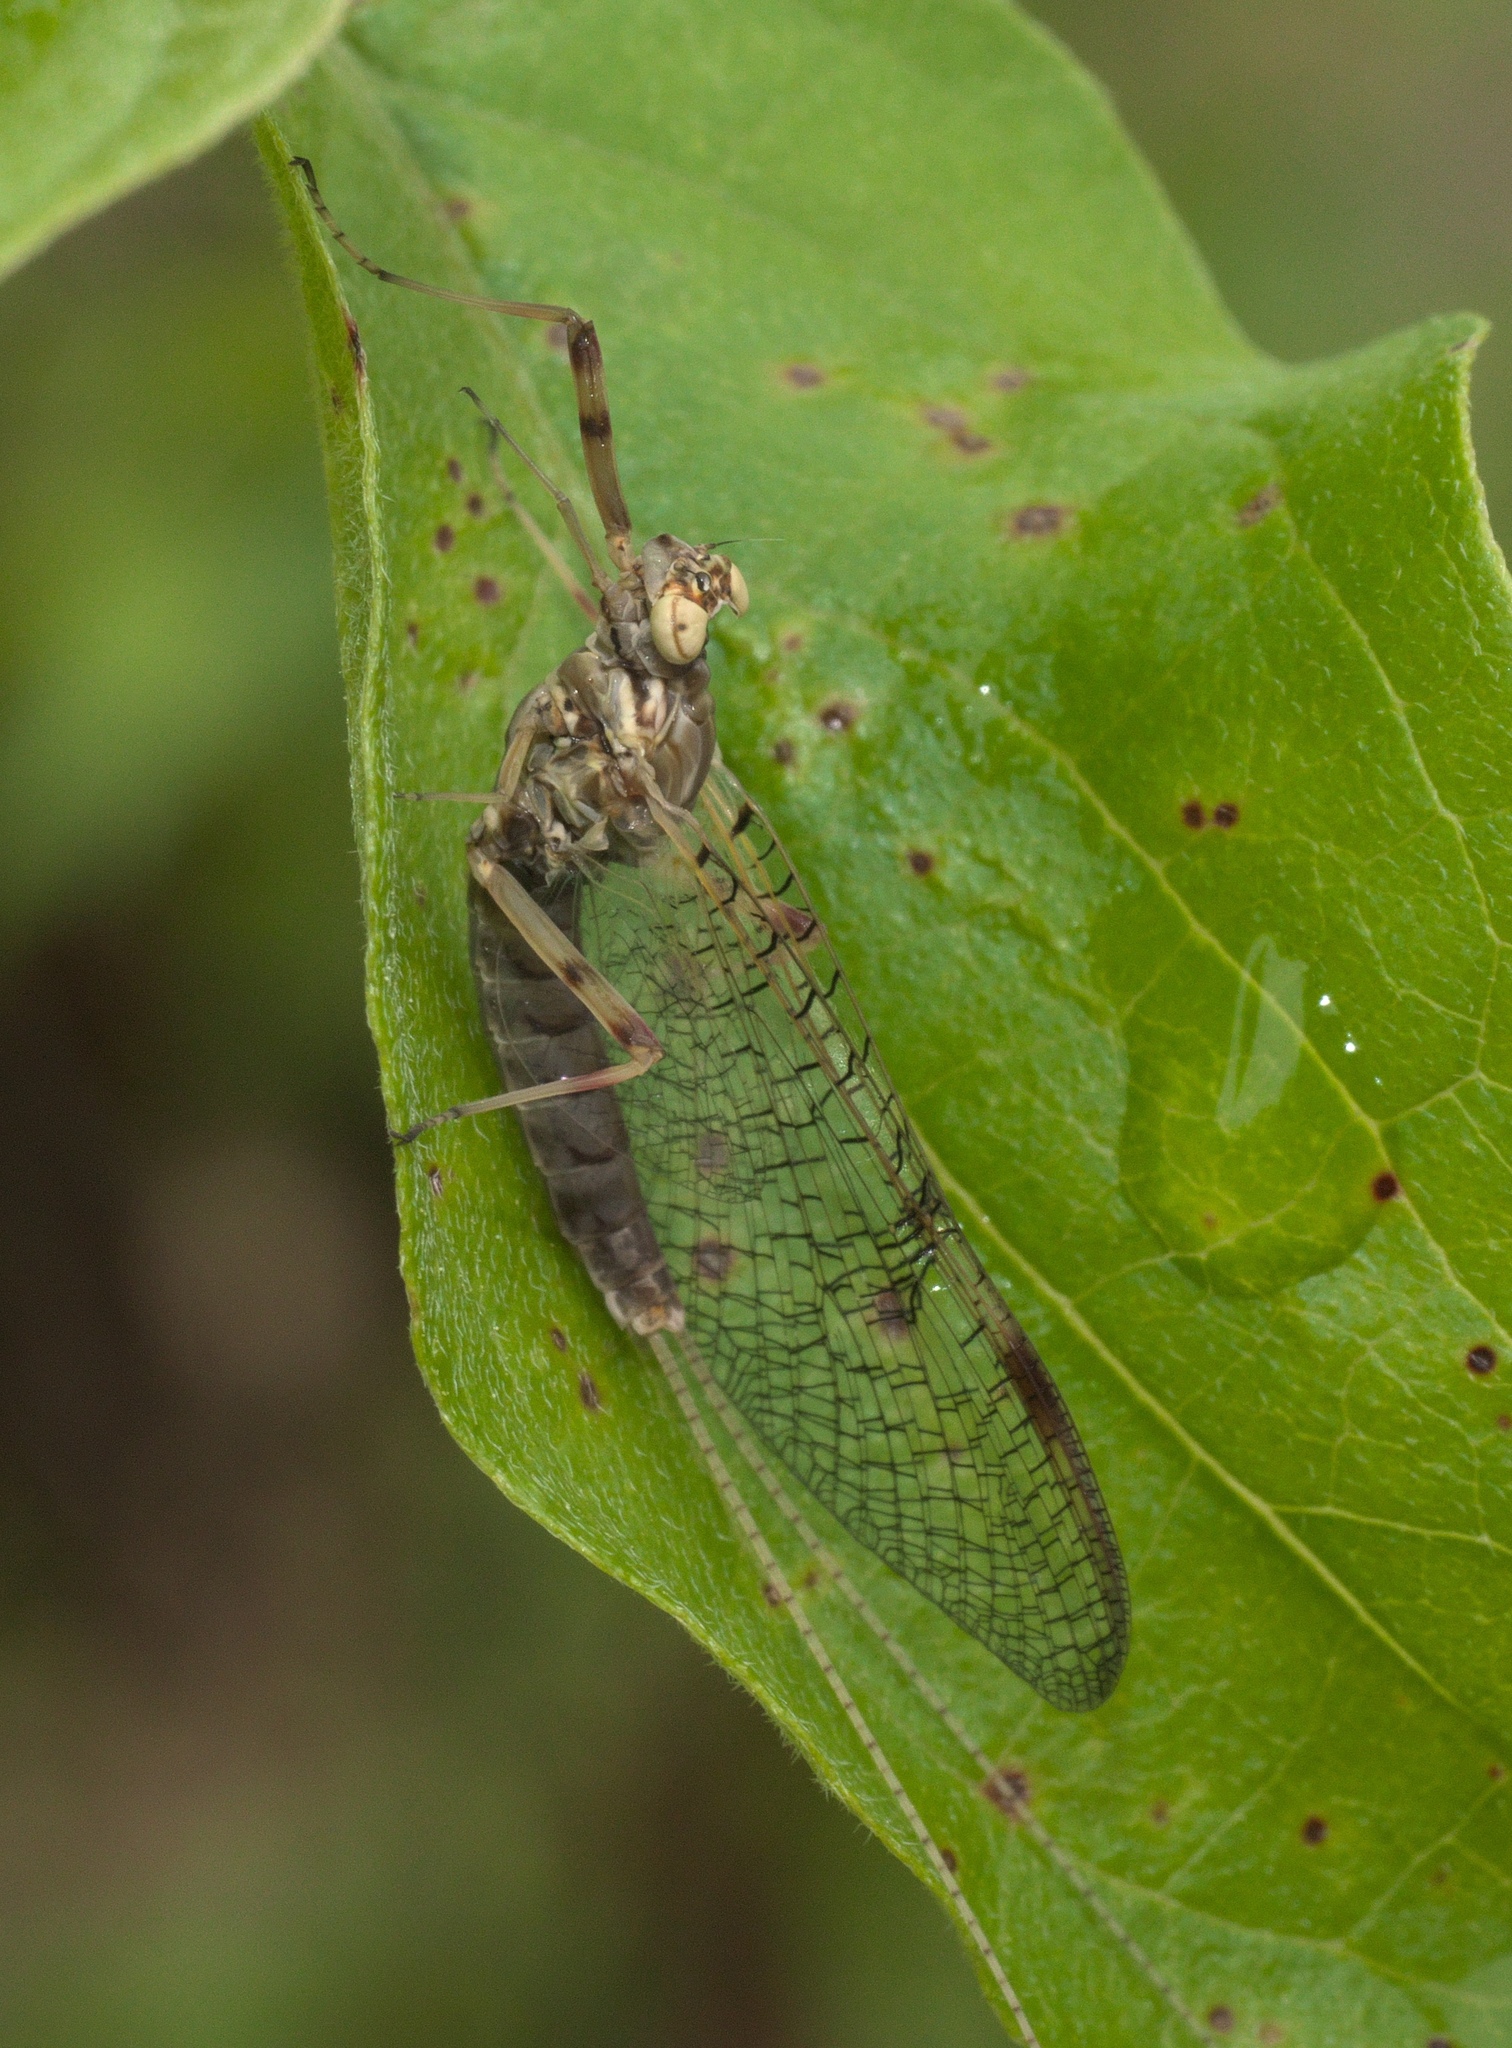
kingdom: Animalia
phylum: Arthropoda
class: Insecta
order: Ephemeroptera
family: Heptageniidae
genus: Stenonema
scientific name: Stenonema femoratum
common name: Dark cahill
